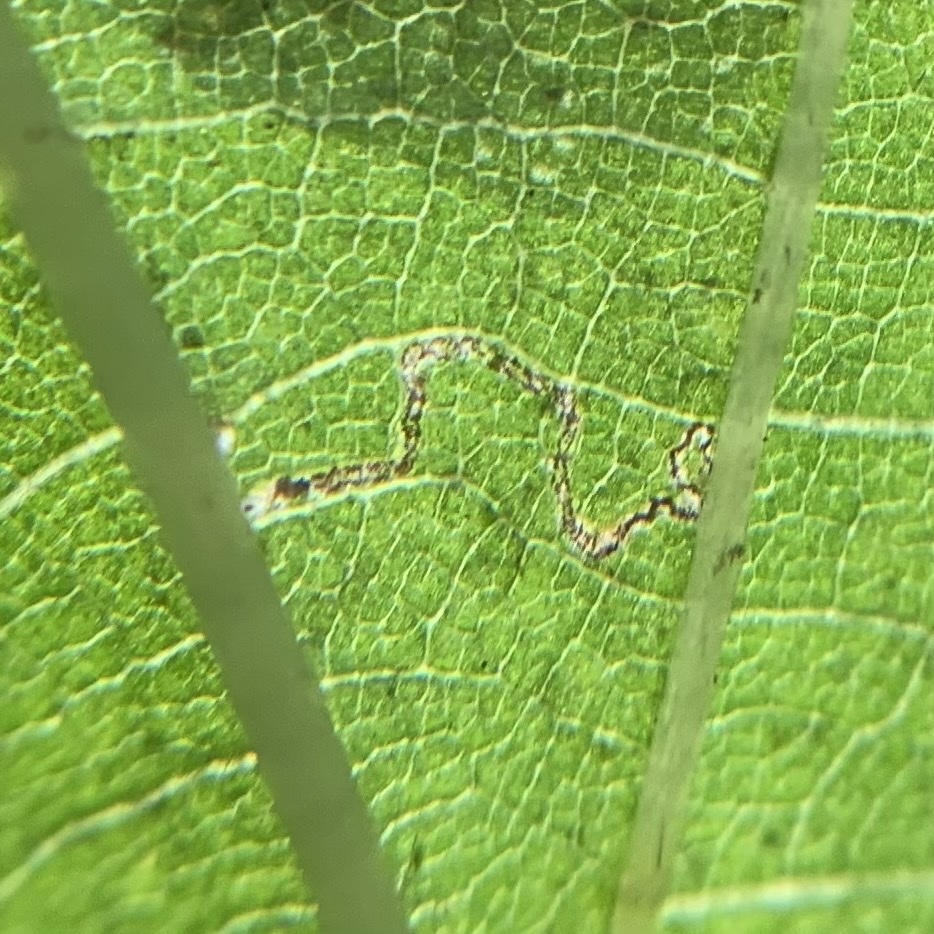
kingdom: Animalia
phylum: Arthropoda
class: Insecta
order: Lepidoptera
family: Nepticulidae
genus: Stigmella
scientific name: Stigmella argentifasciella
